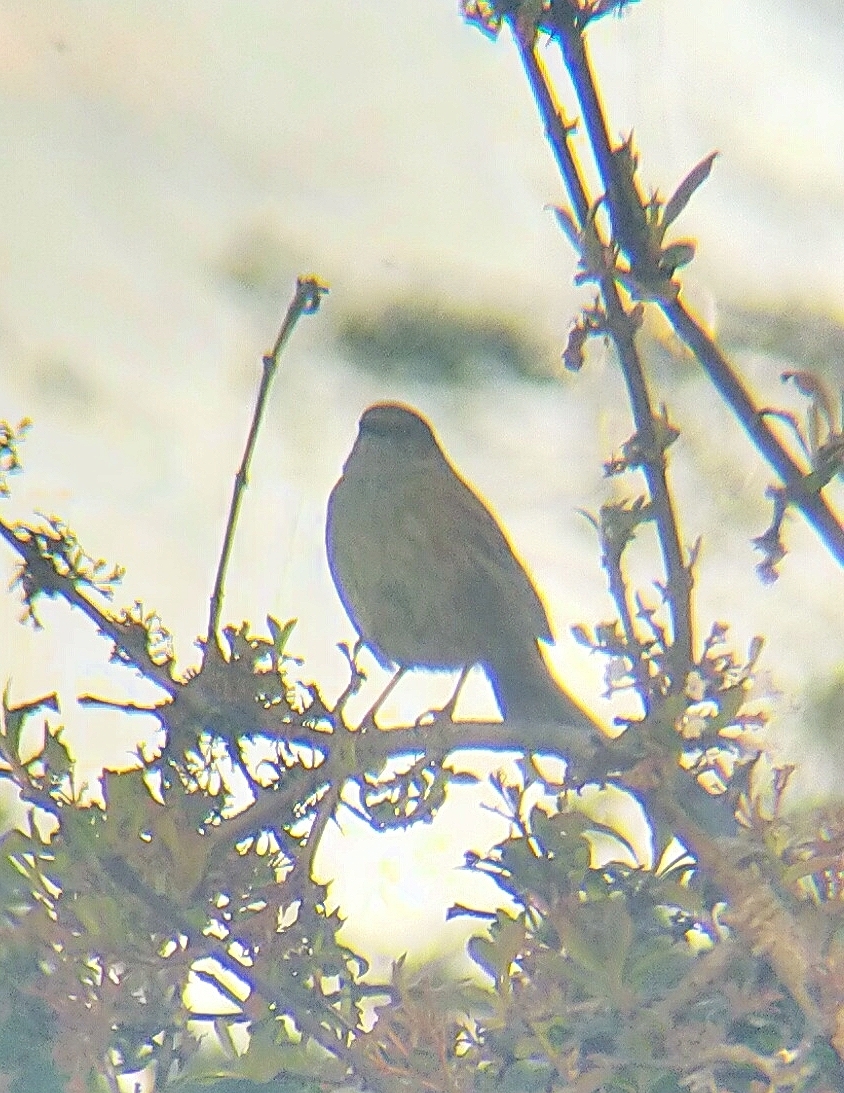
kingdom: Animalia
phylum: Chordata
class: Aves
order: Passeriformes
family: Prunellidae
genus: Prunella
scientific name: Prunella modularis
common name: Dunnock
